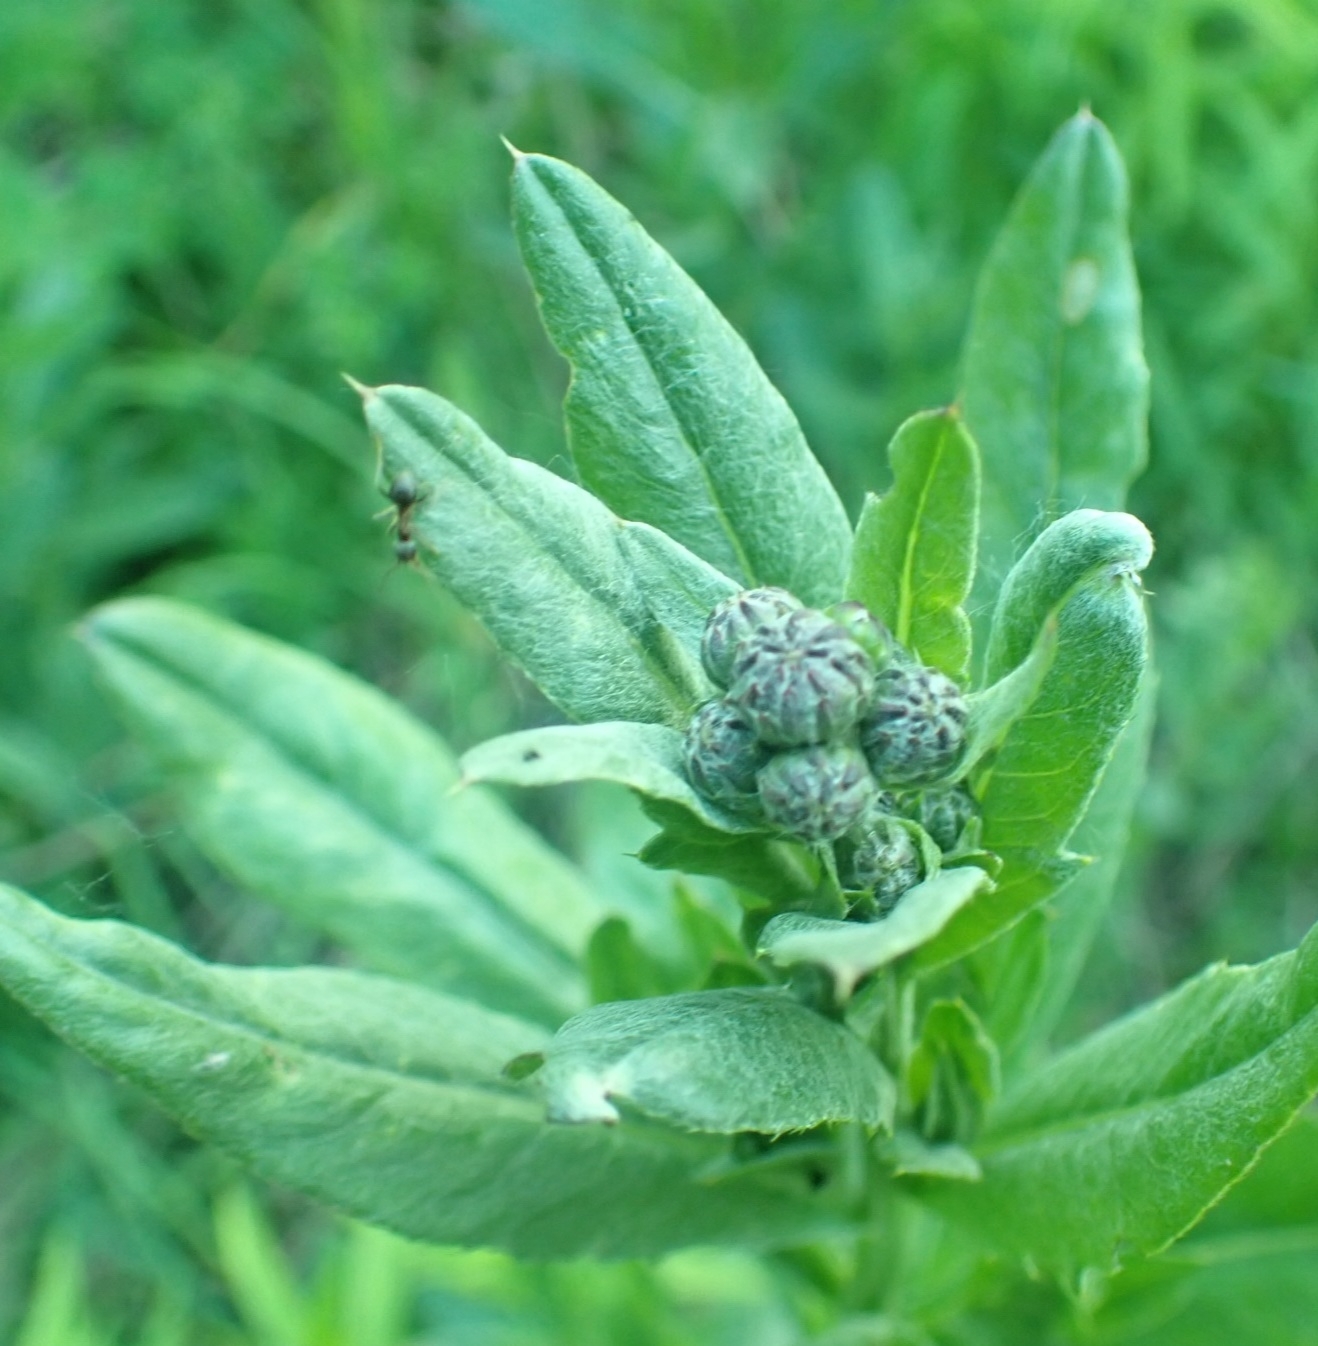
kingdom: Plantae
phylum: Tracheophyta
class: Magnoliopsida
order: Asterales
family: Asteraceae
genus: Cirsium
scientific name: Cirsium arvense
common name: Creeping thistle
